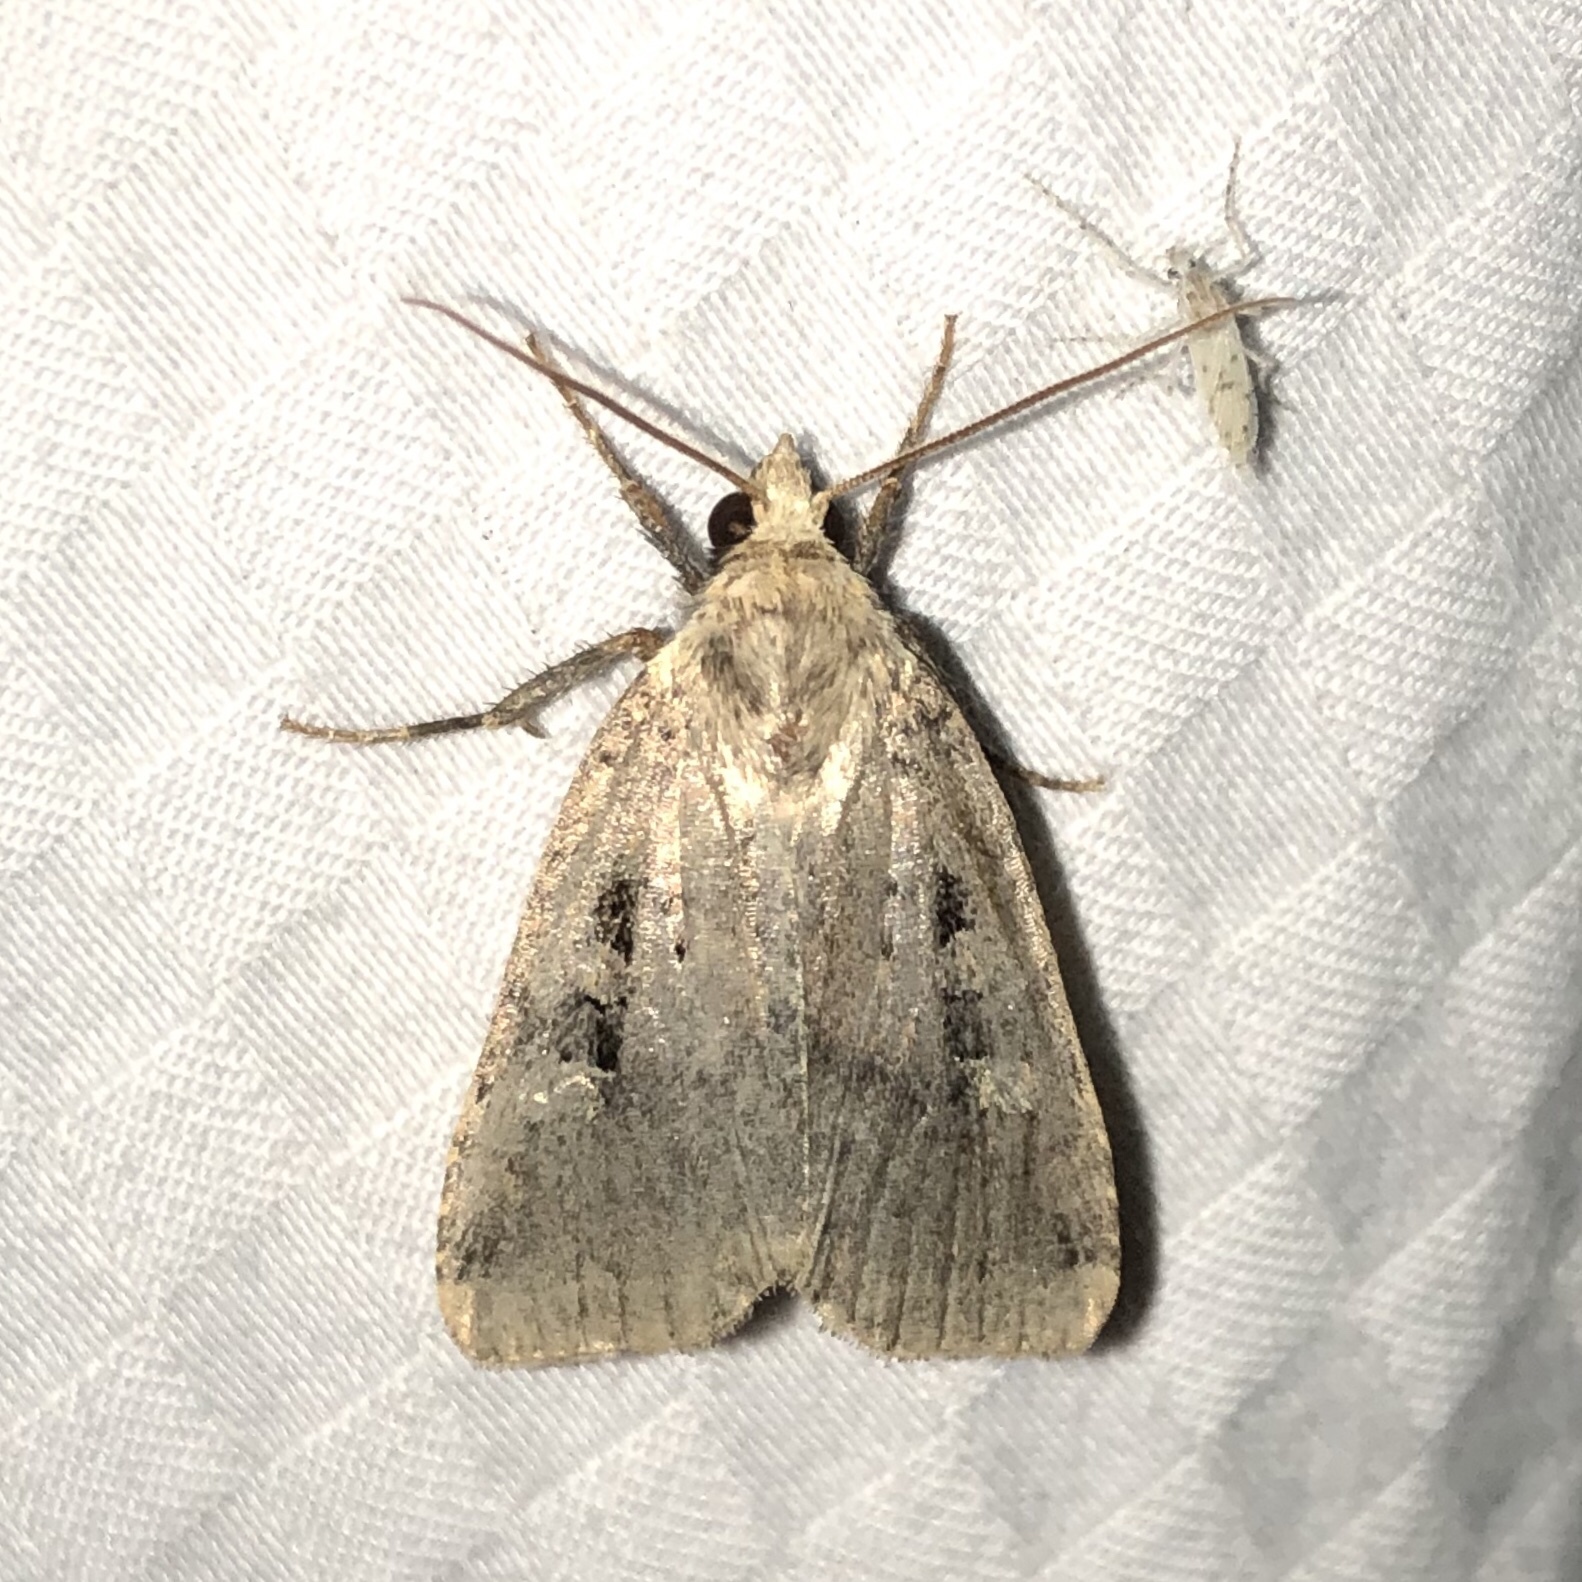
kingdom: Animalia
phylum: Arthropoda
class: Insecta
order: Lepidoptera
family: Noctuidae
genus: Xestia
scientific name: Xestia normaniana
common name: Norman's dart moth
